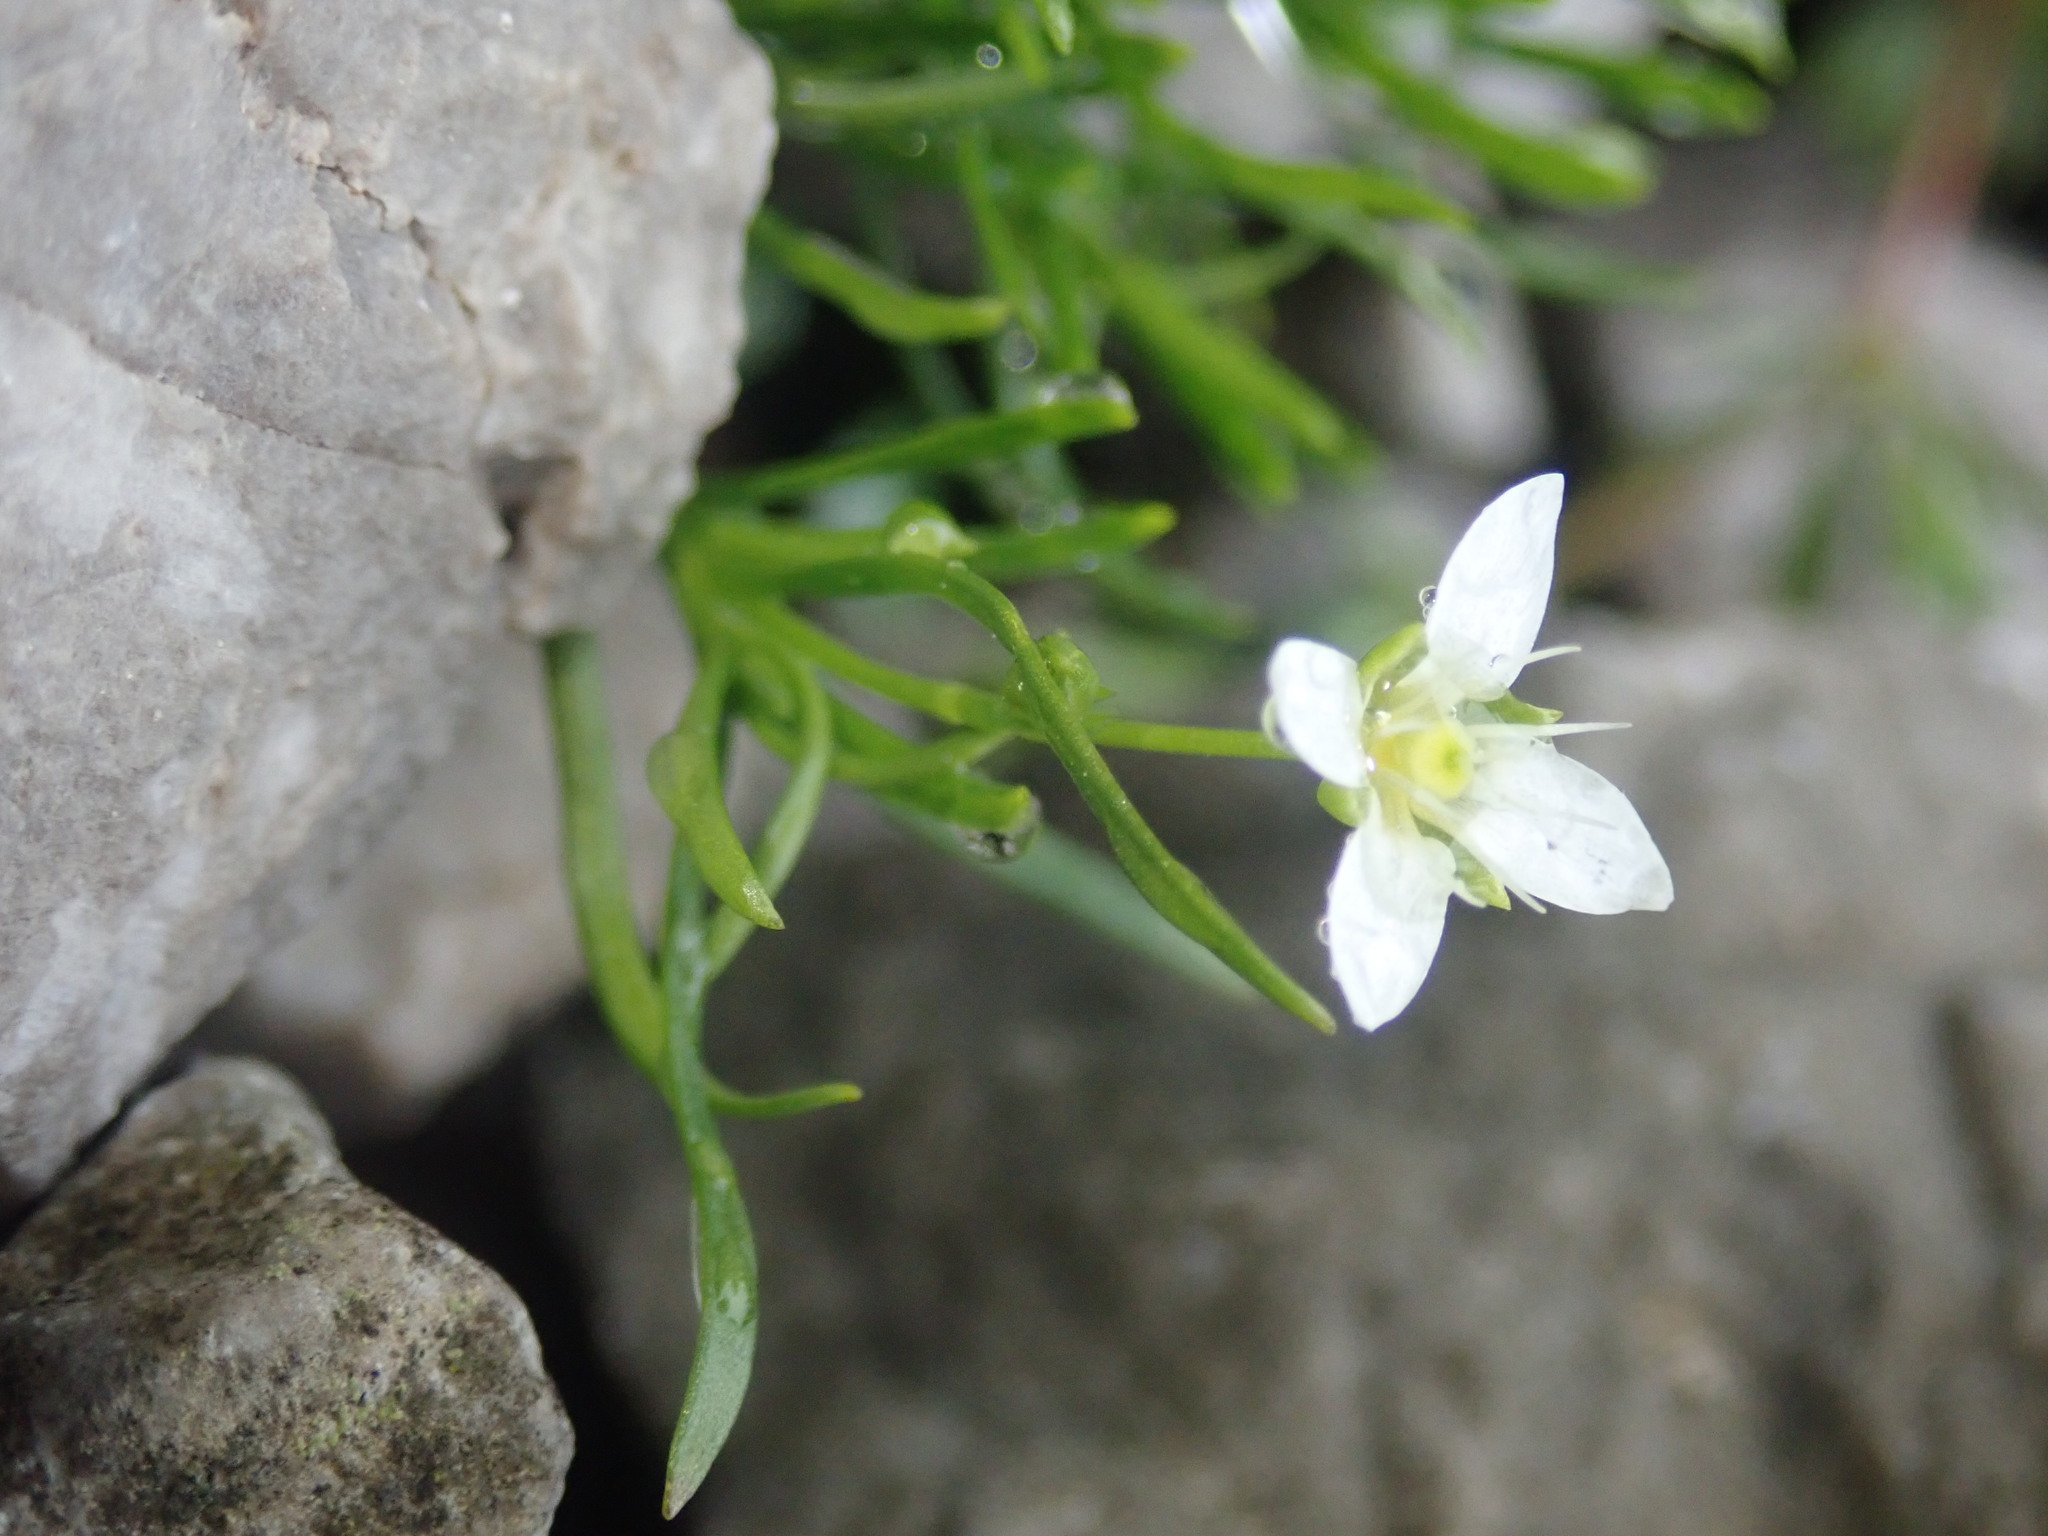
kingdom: Plantae
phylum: Tracheophyta
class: Magnoliopsida
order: Caryophyllales
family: Caryophyllaceae
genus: Moehringia
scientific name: Moehringia muscosa
